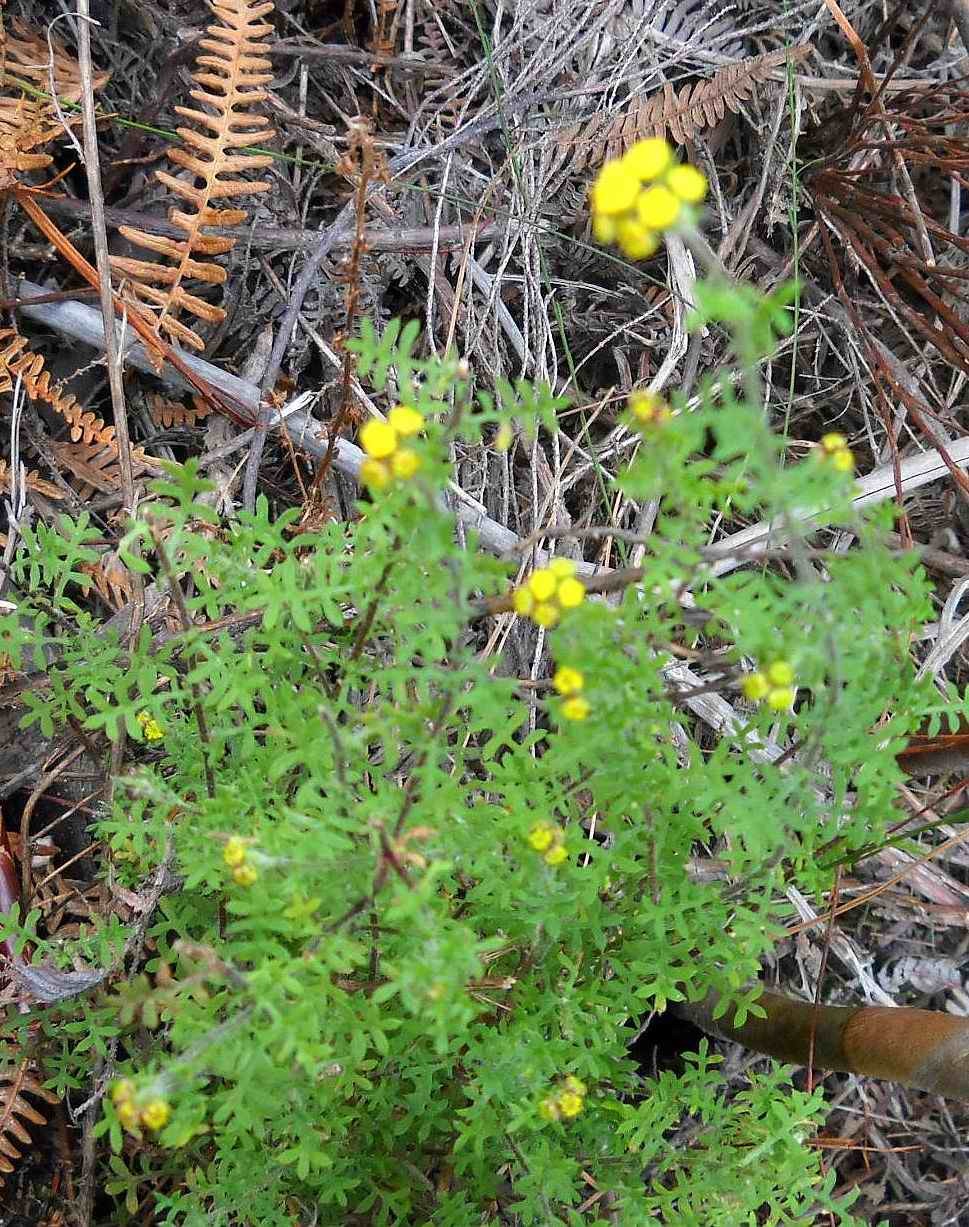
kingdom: Plantae
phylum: Tracheophyta
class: Magnoliopsida
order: Asterales
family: Asteraceae
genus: Hippia
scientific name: Hippia frutescens
